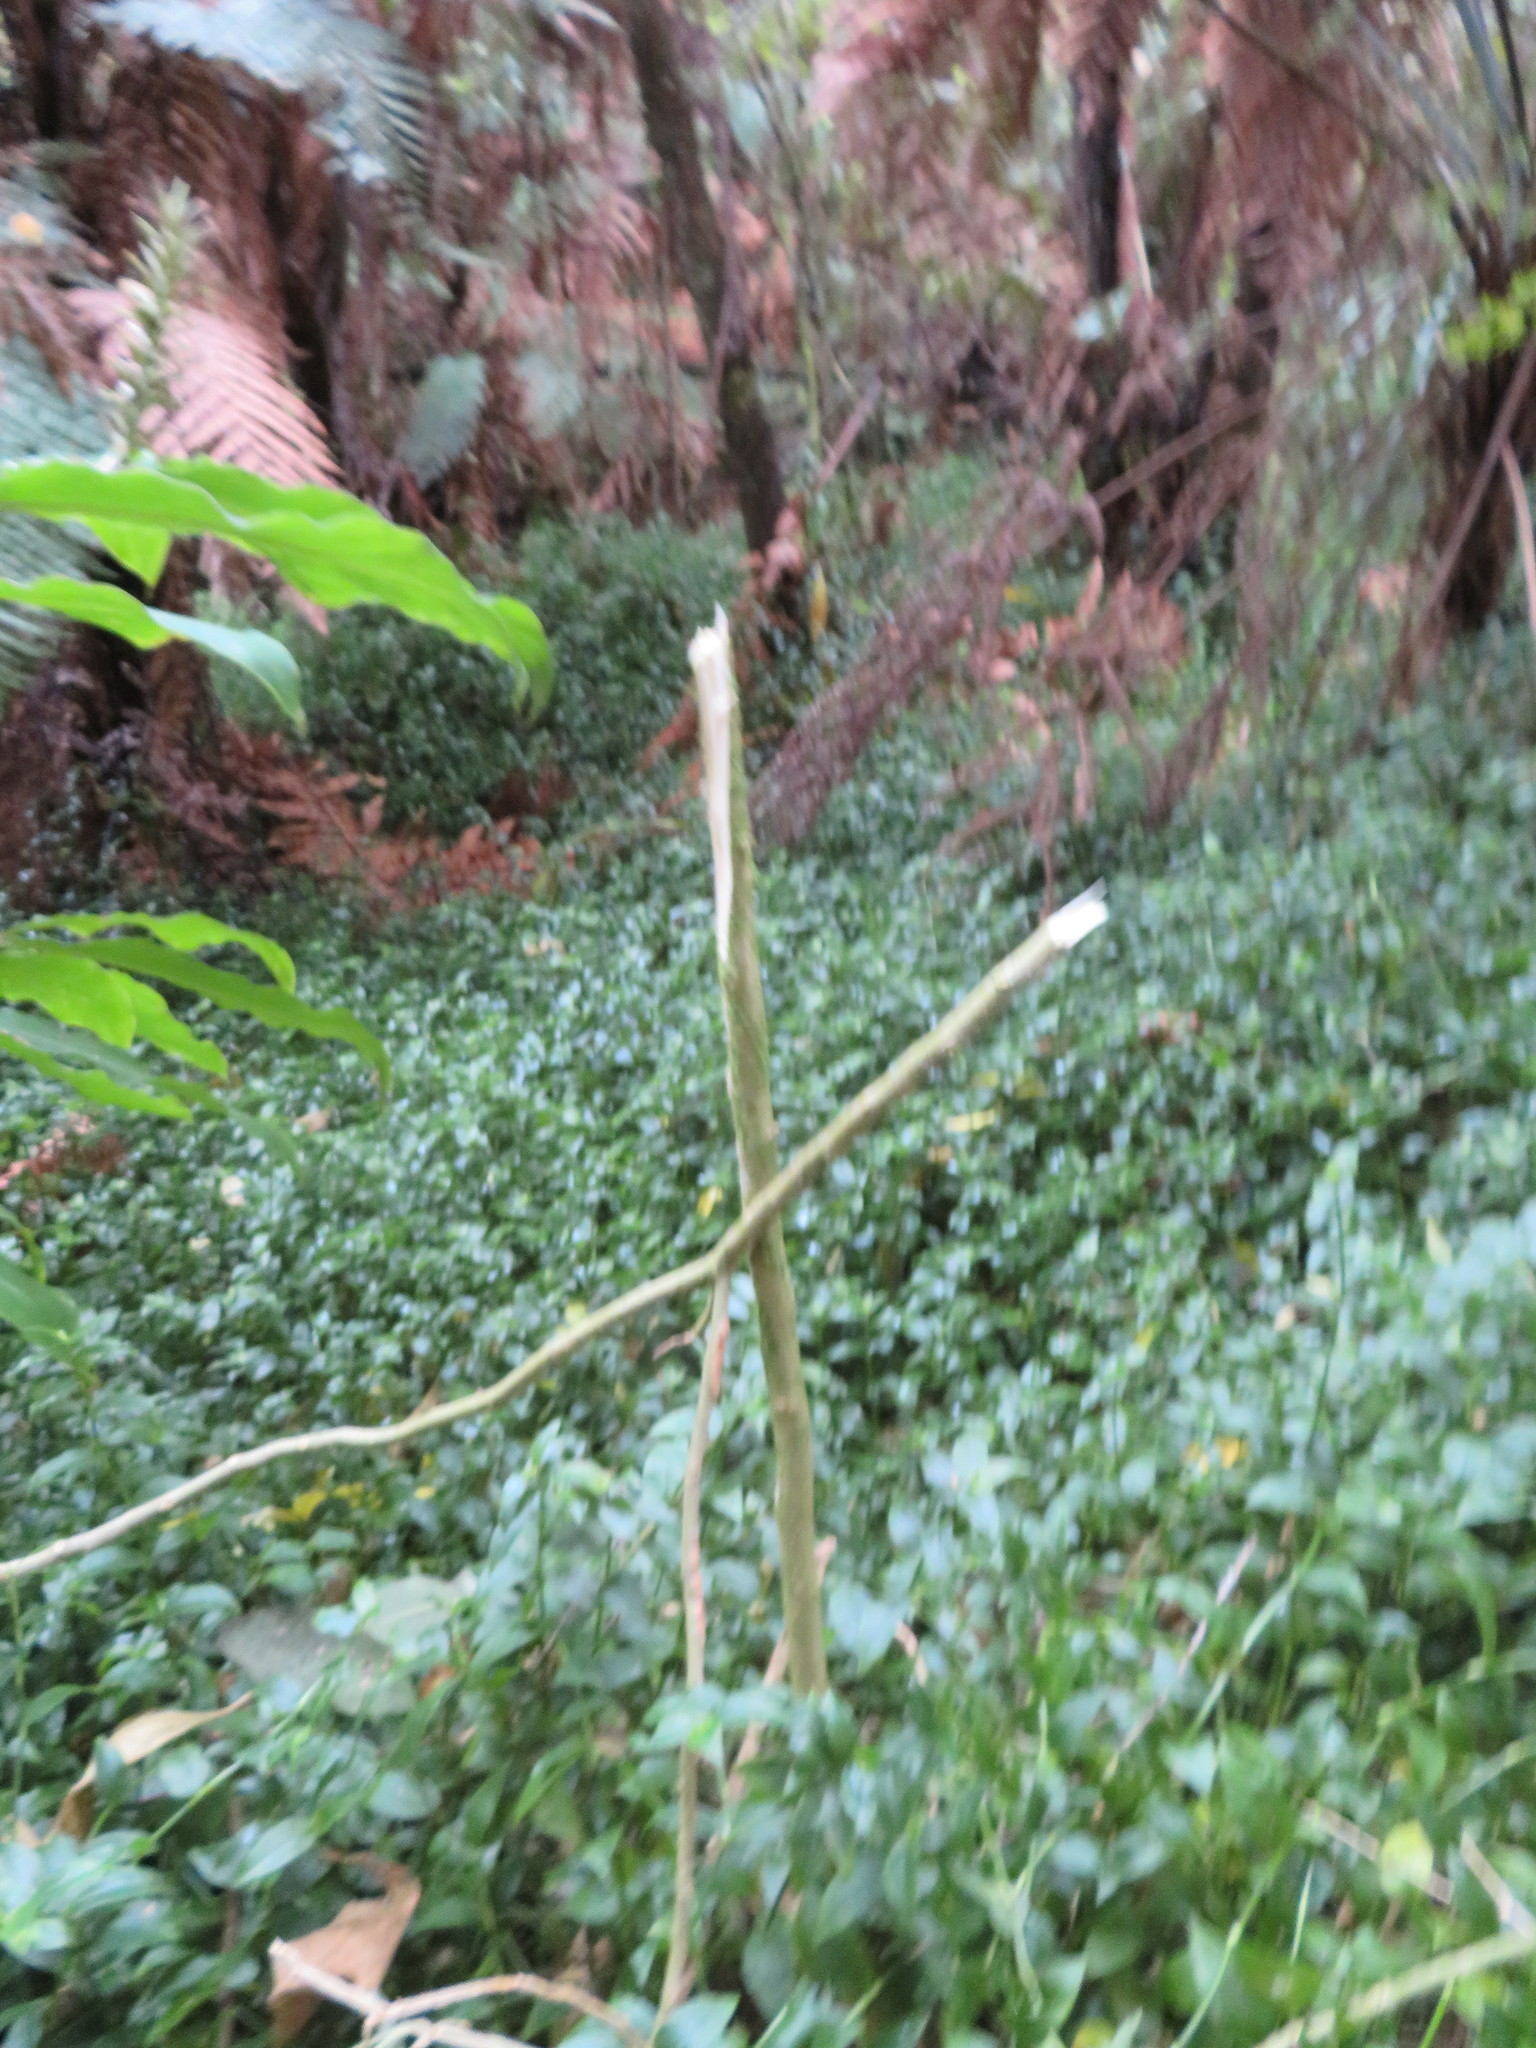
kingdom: Plantae
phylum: Tracheophyta
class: Magnoliopsida
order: Solanales
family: Solanaceae
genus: Solanum
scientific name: Solanum mauritianum
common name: Earleaf nightshade
